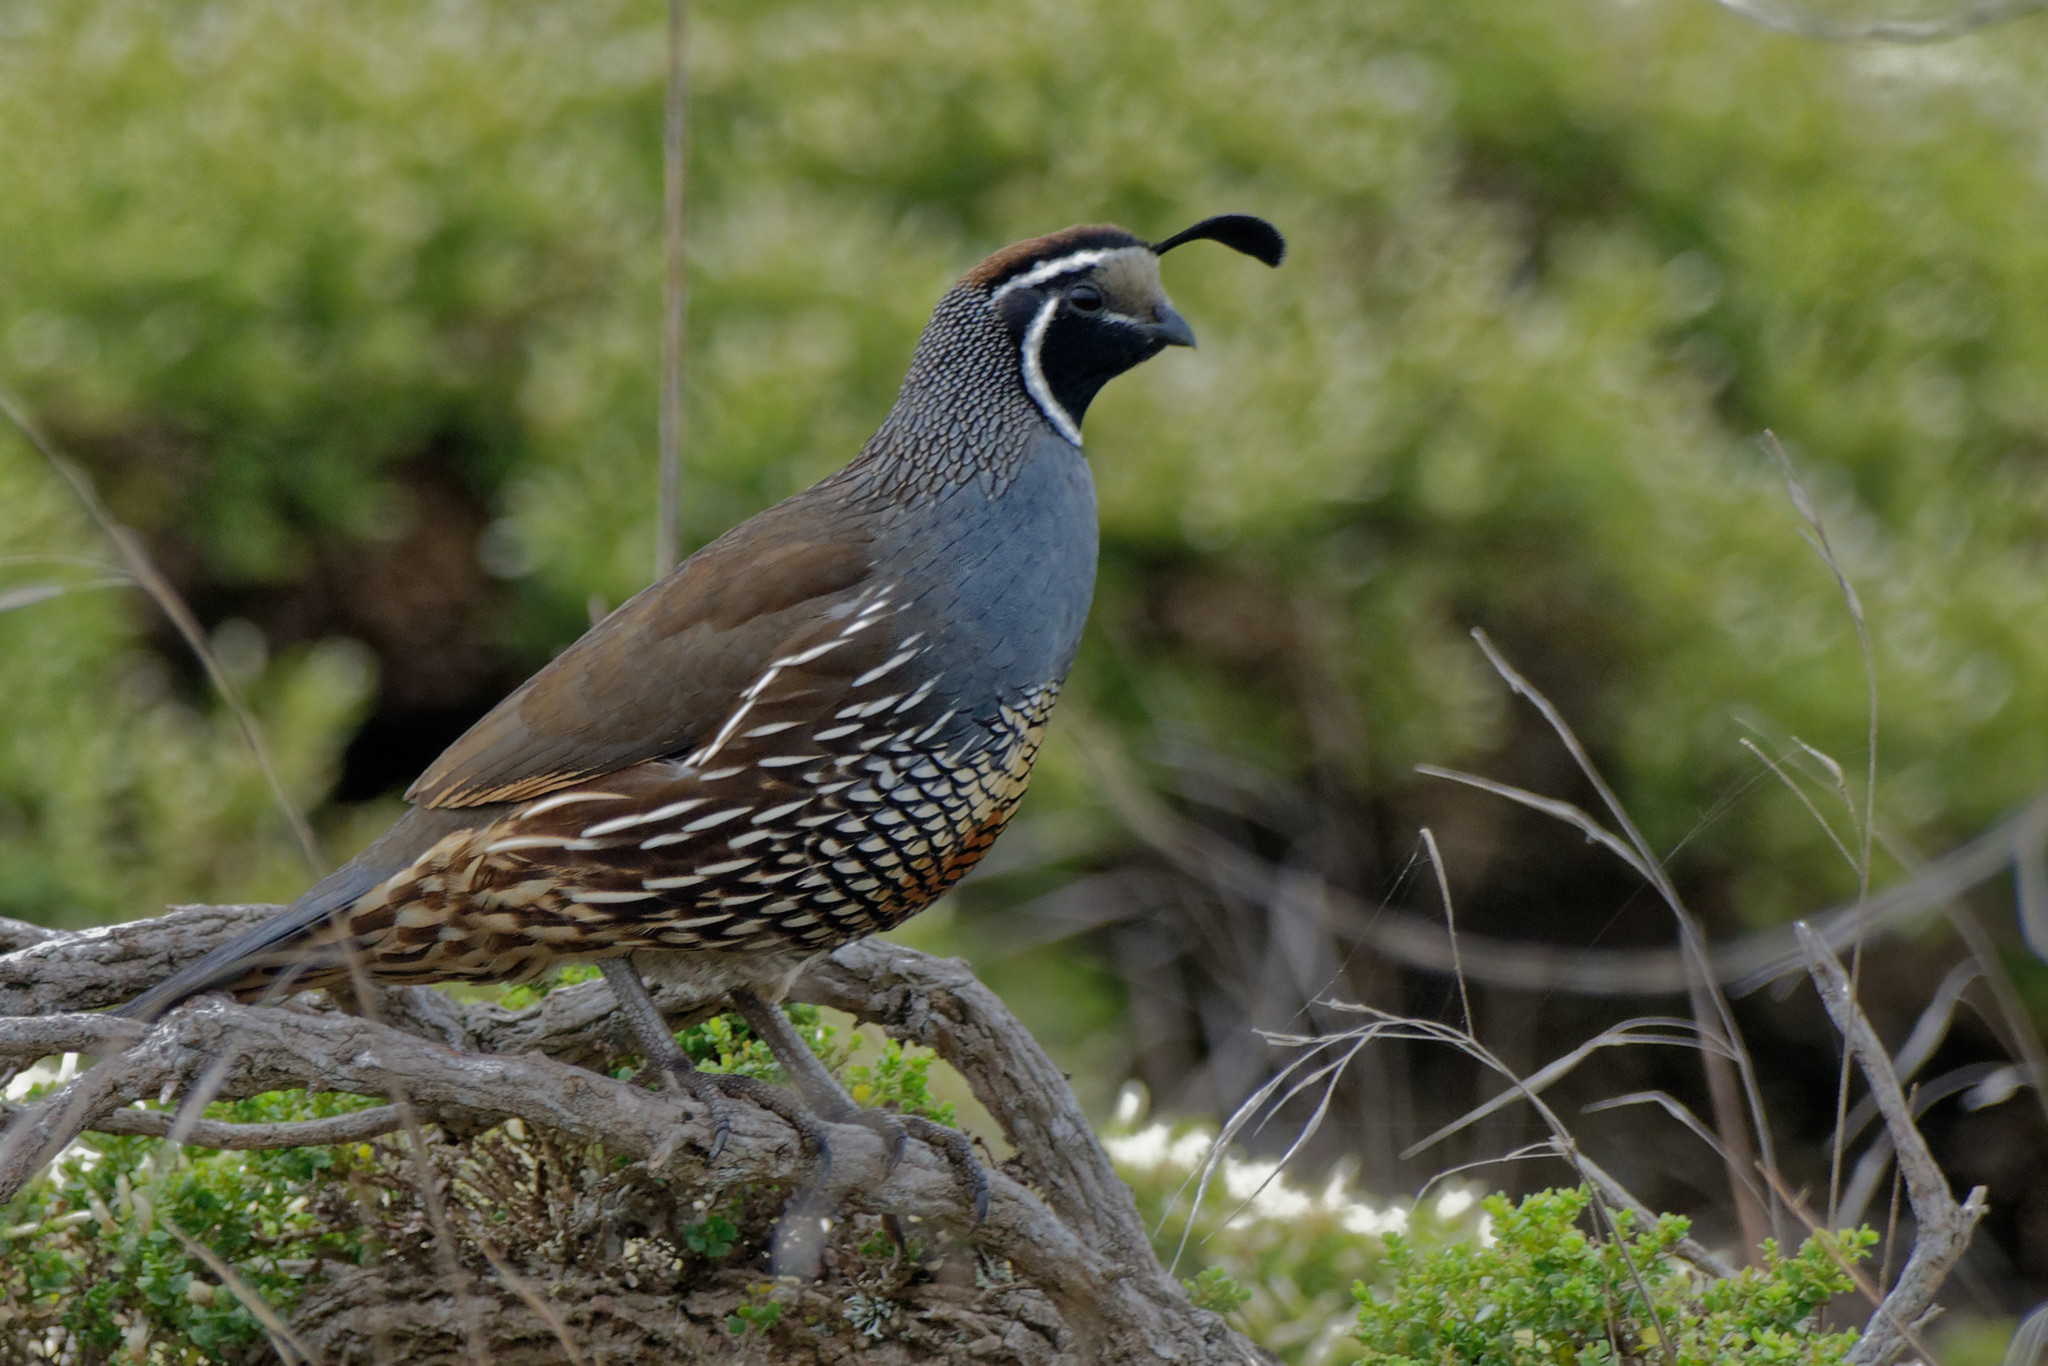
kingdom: Animalia
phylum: Chordata
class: Aves
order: Galliformes
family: Odontophoridae
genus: Callipepla
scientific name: Callipepla californica
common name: California quail
